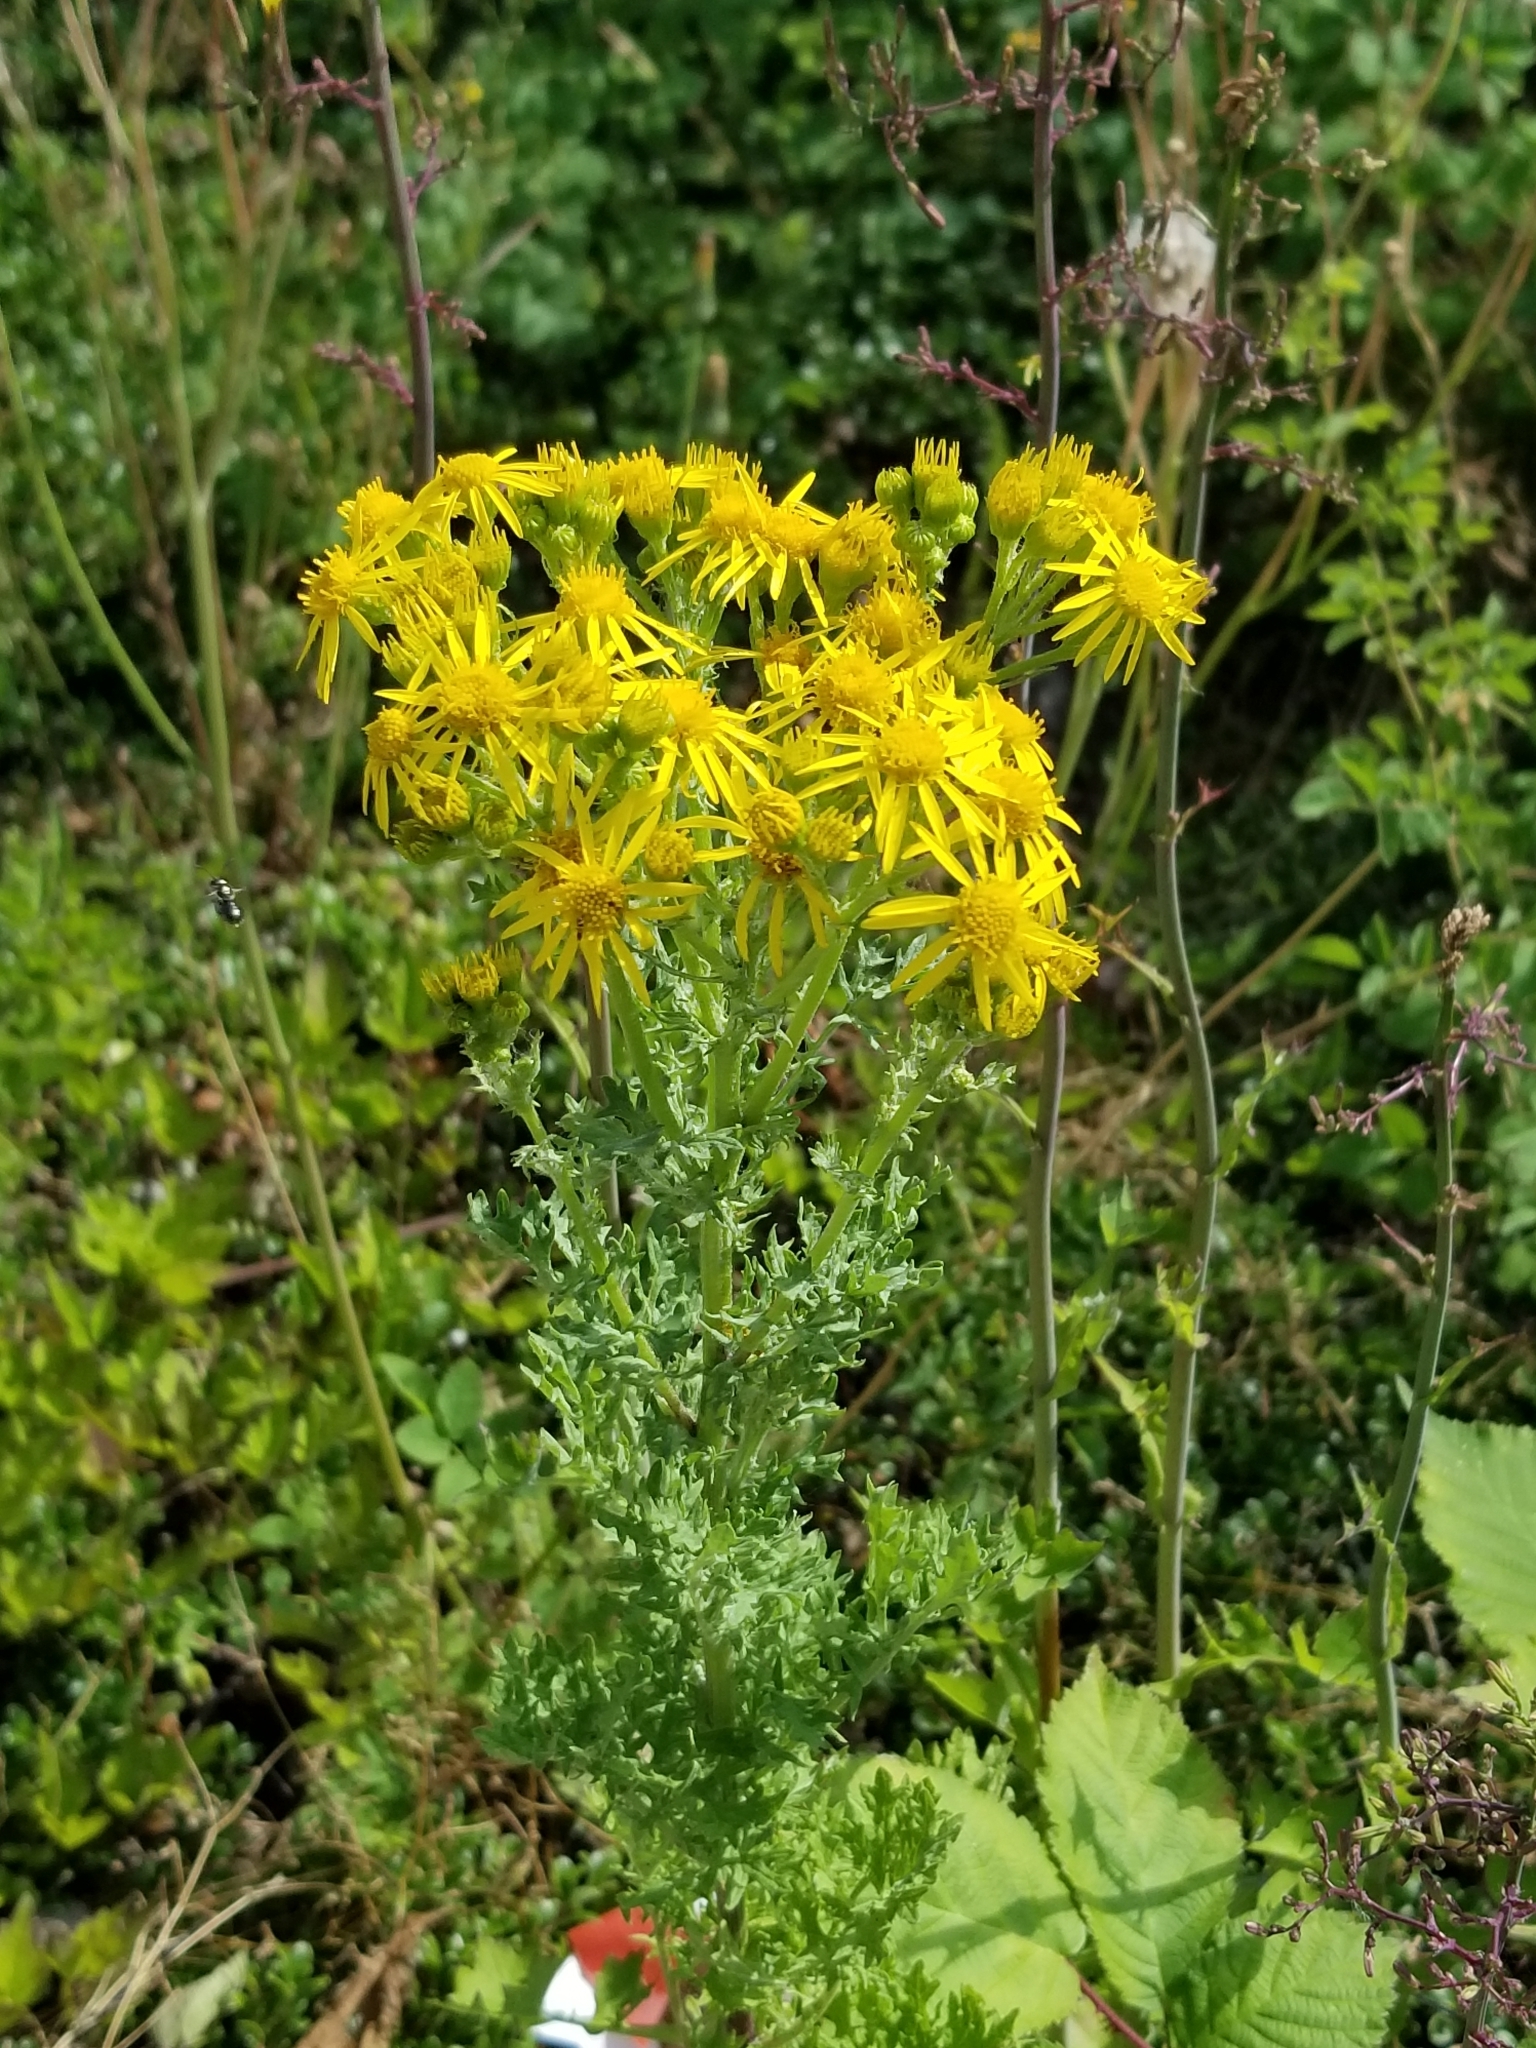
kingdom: Plantae
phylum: Tracheophyta
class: Magnoliopsida
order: Asterales
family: Asteraceae
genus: Jacobaea
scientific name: Jacobaea vulgaris
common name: Stinking willie
